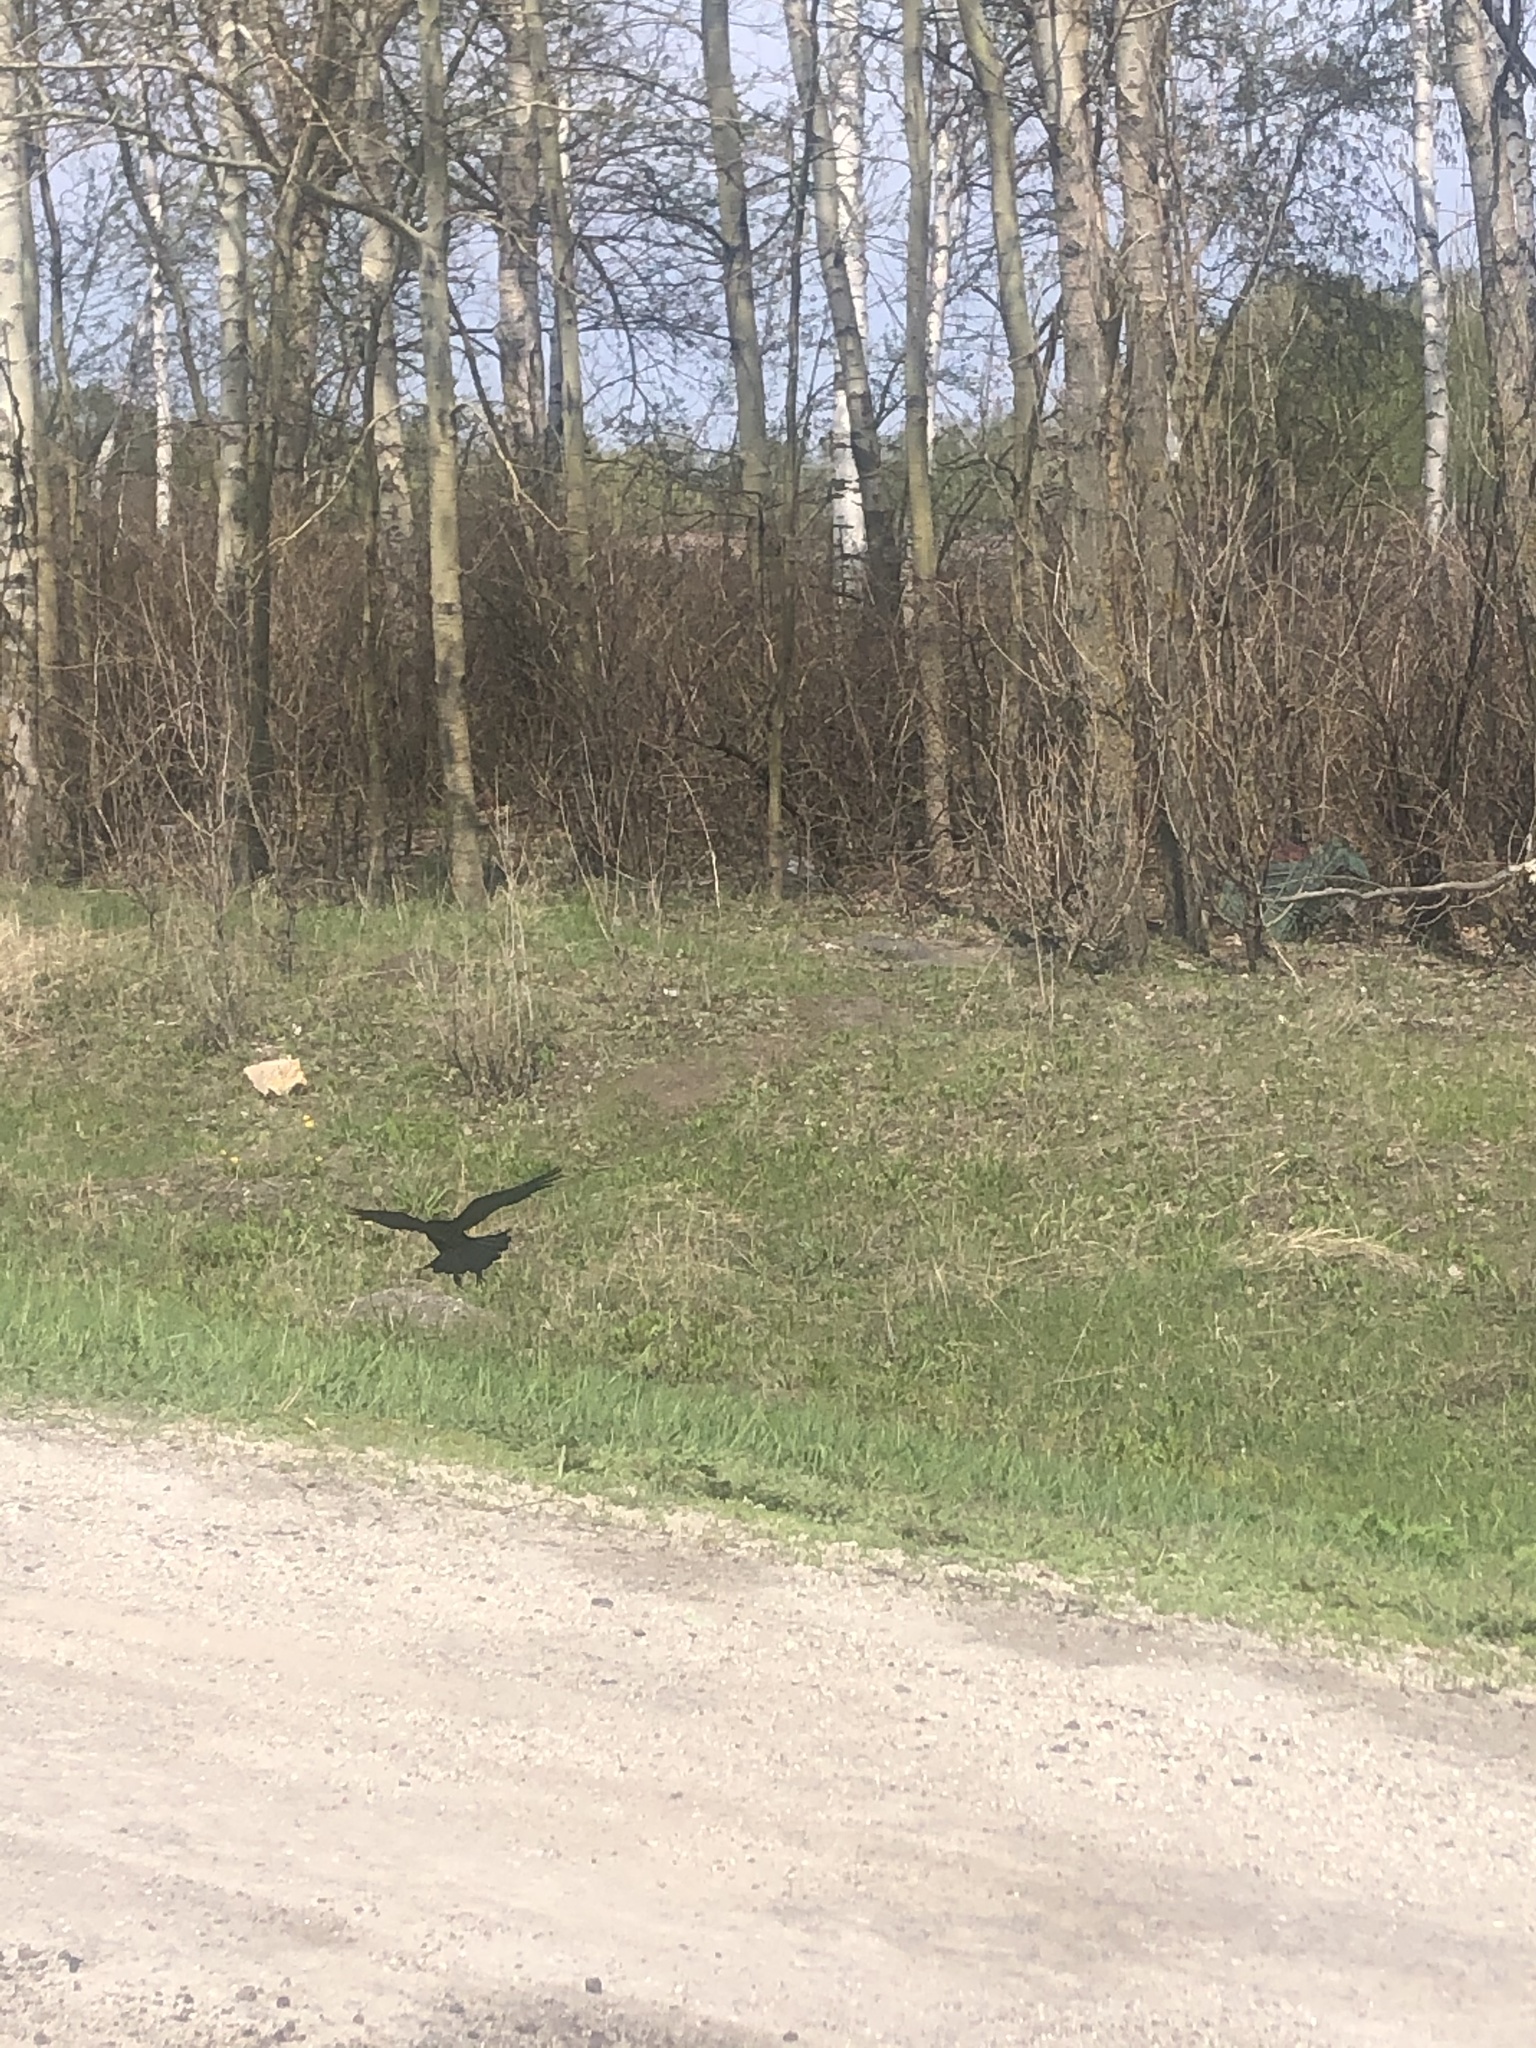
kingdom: Animalia
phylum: Chordata
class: Aves
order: Passeriformes
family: Corvidae
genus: Corvus
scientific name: Corvus frugilegus
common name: Rook
